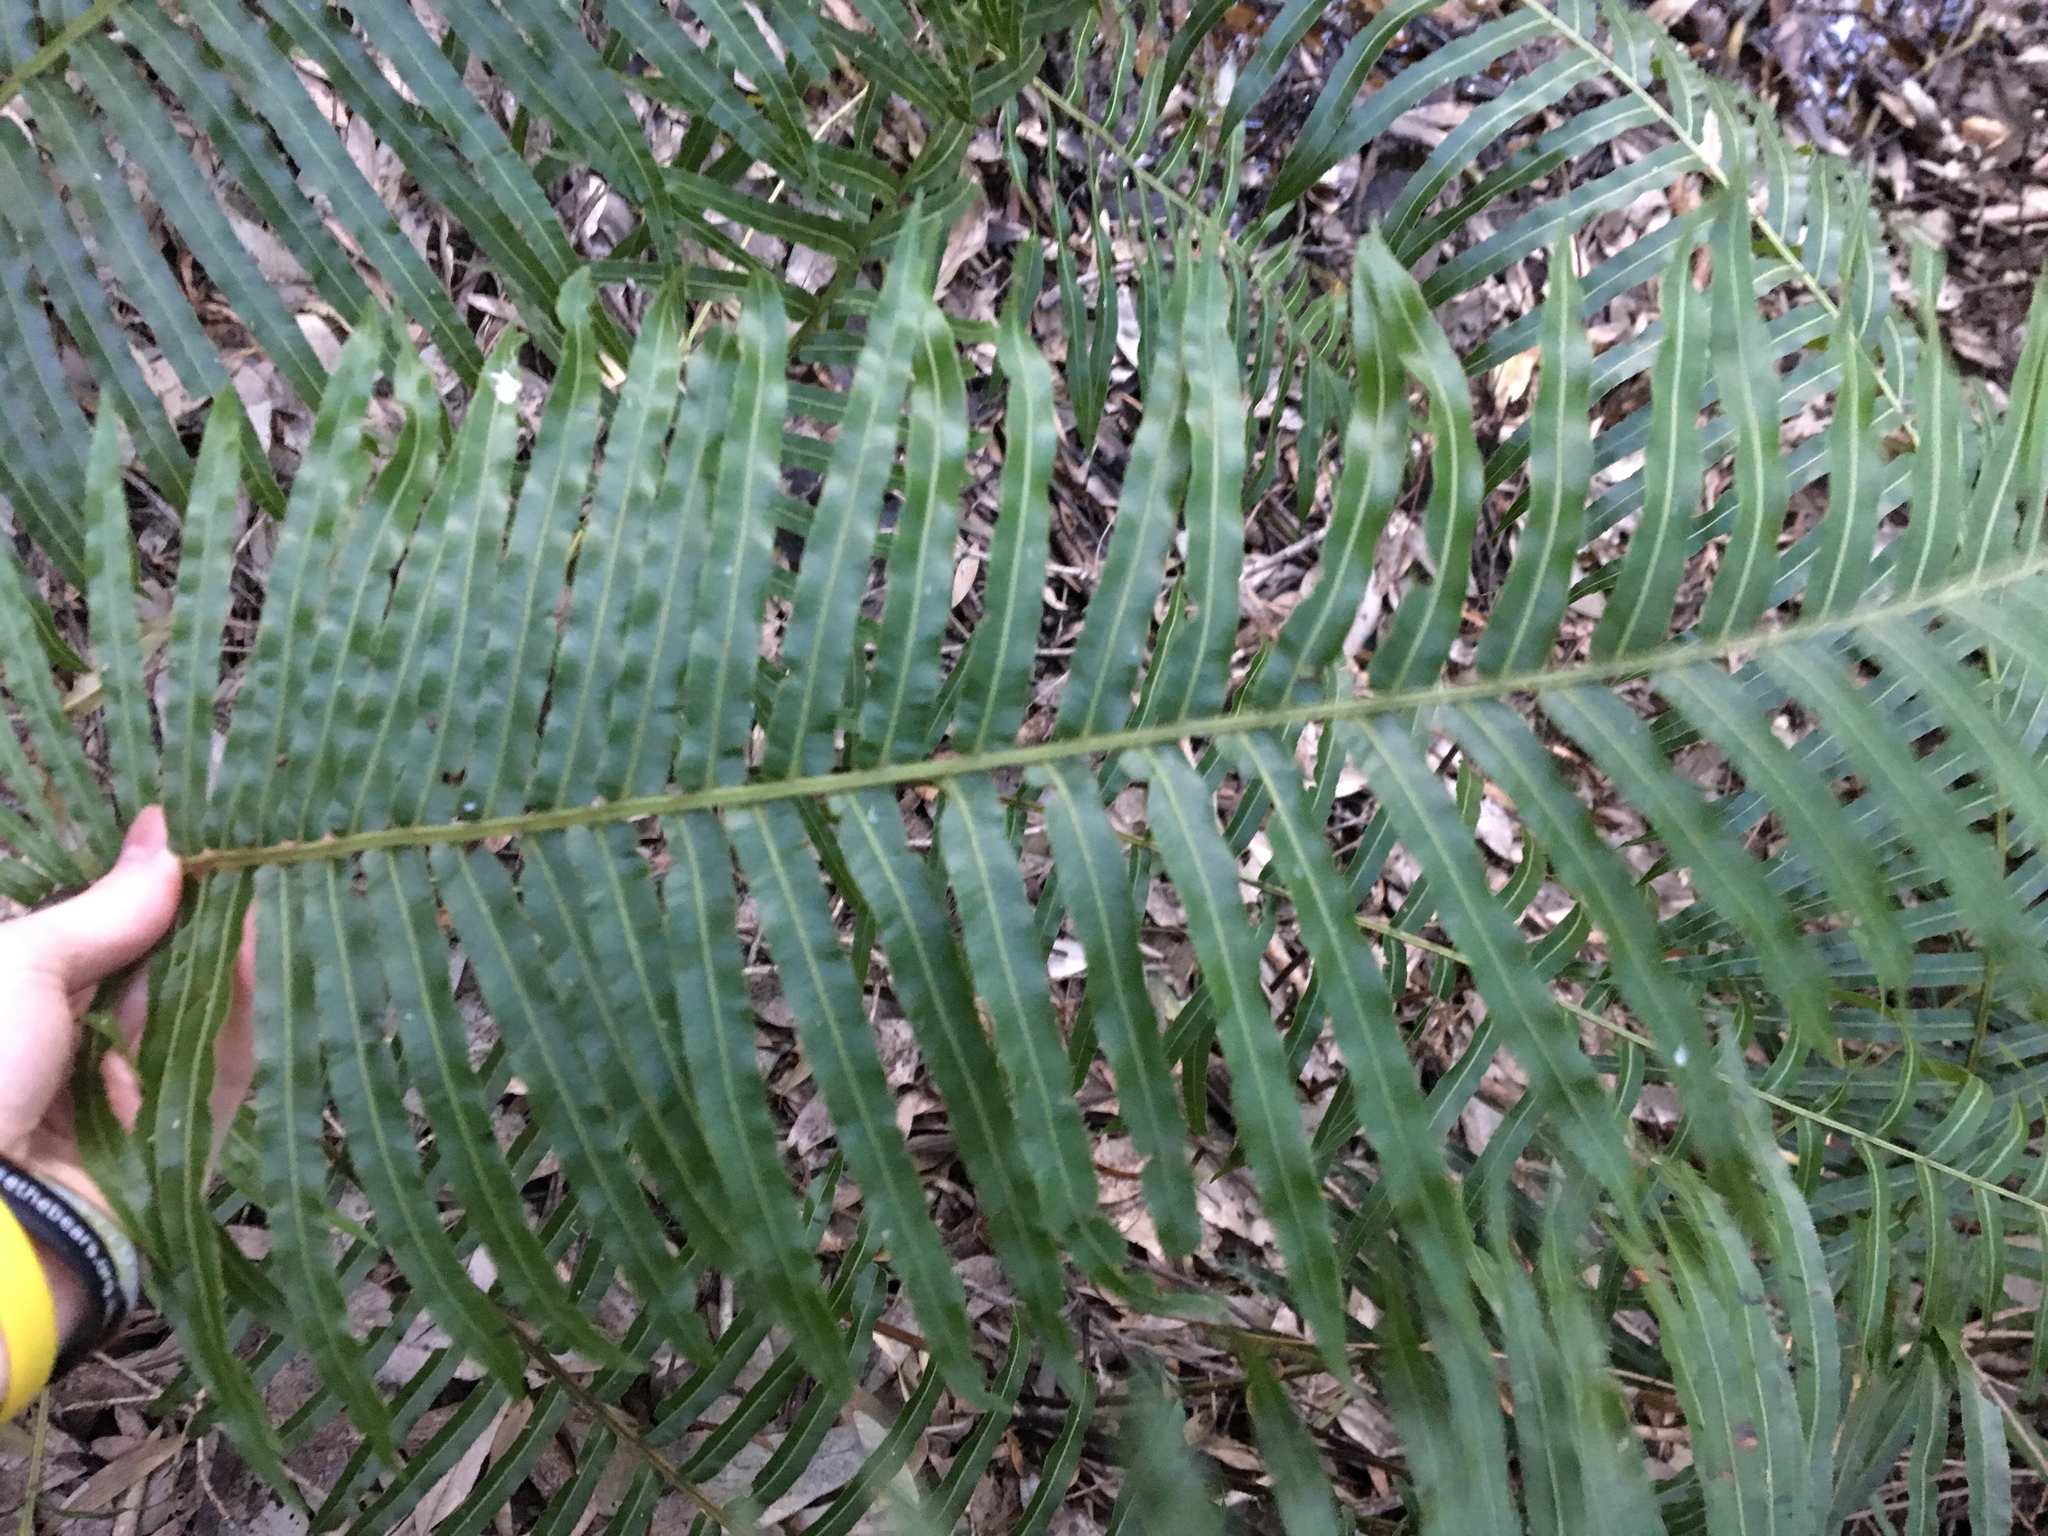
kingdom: Plantae
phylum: Tracheophyta
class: Polypodiopsida
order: Polypodiales
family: Blechnaceae
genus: Telmatoblechnum
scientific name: Telmatoblechnum indicum
